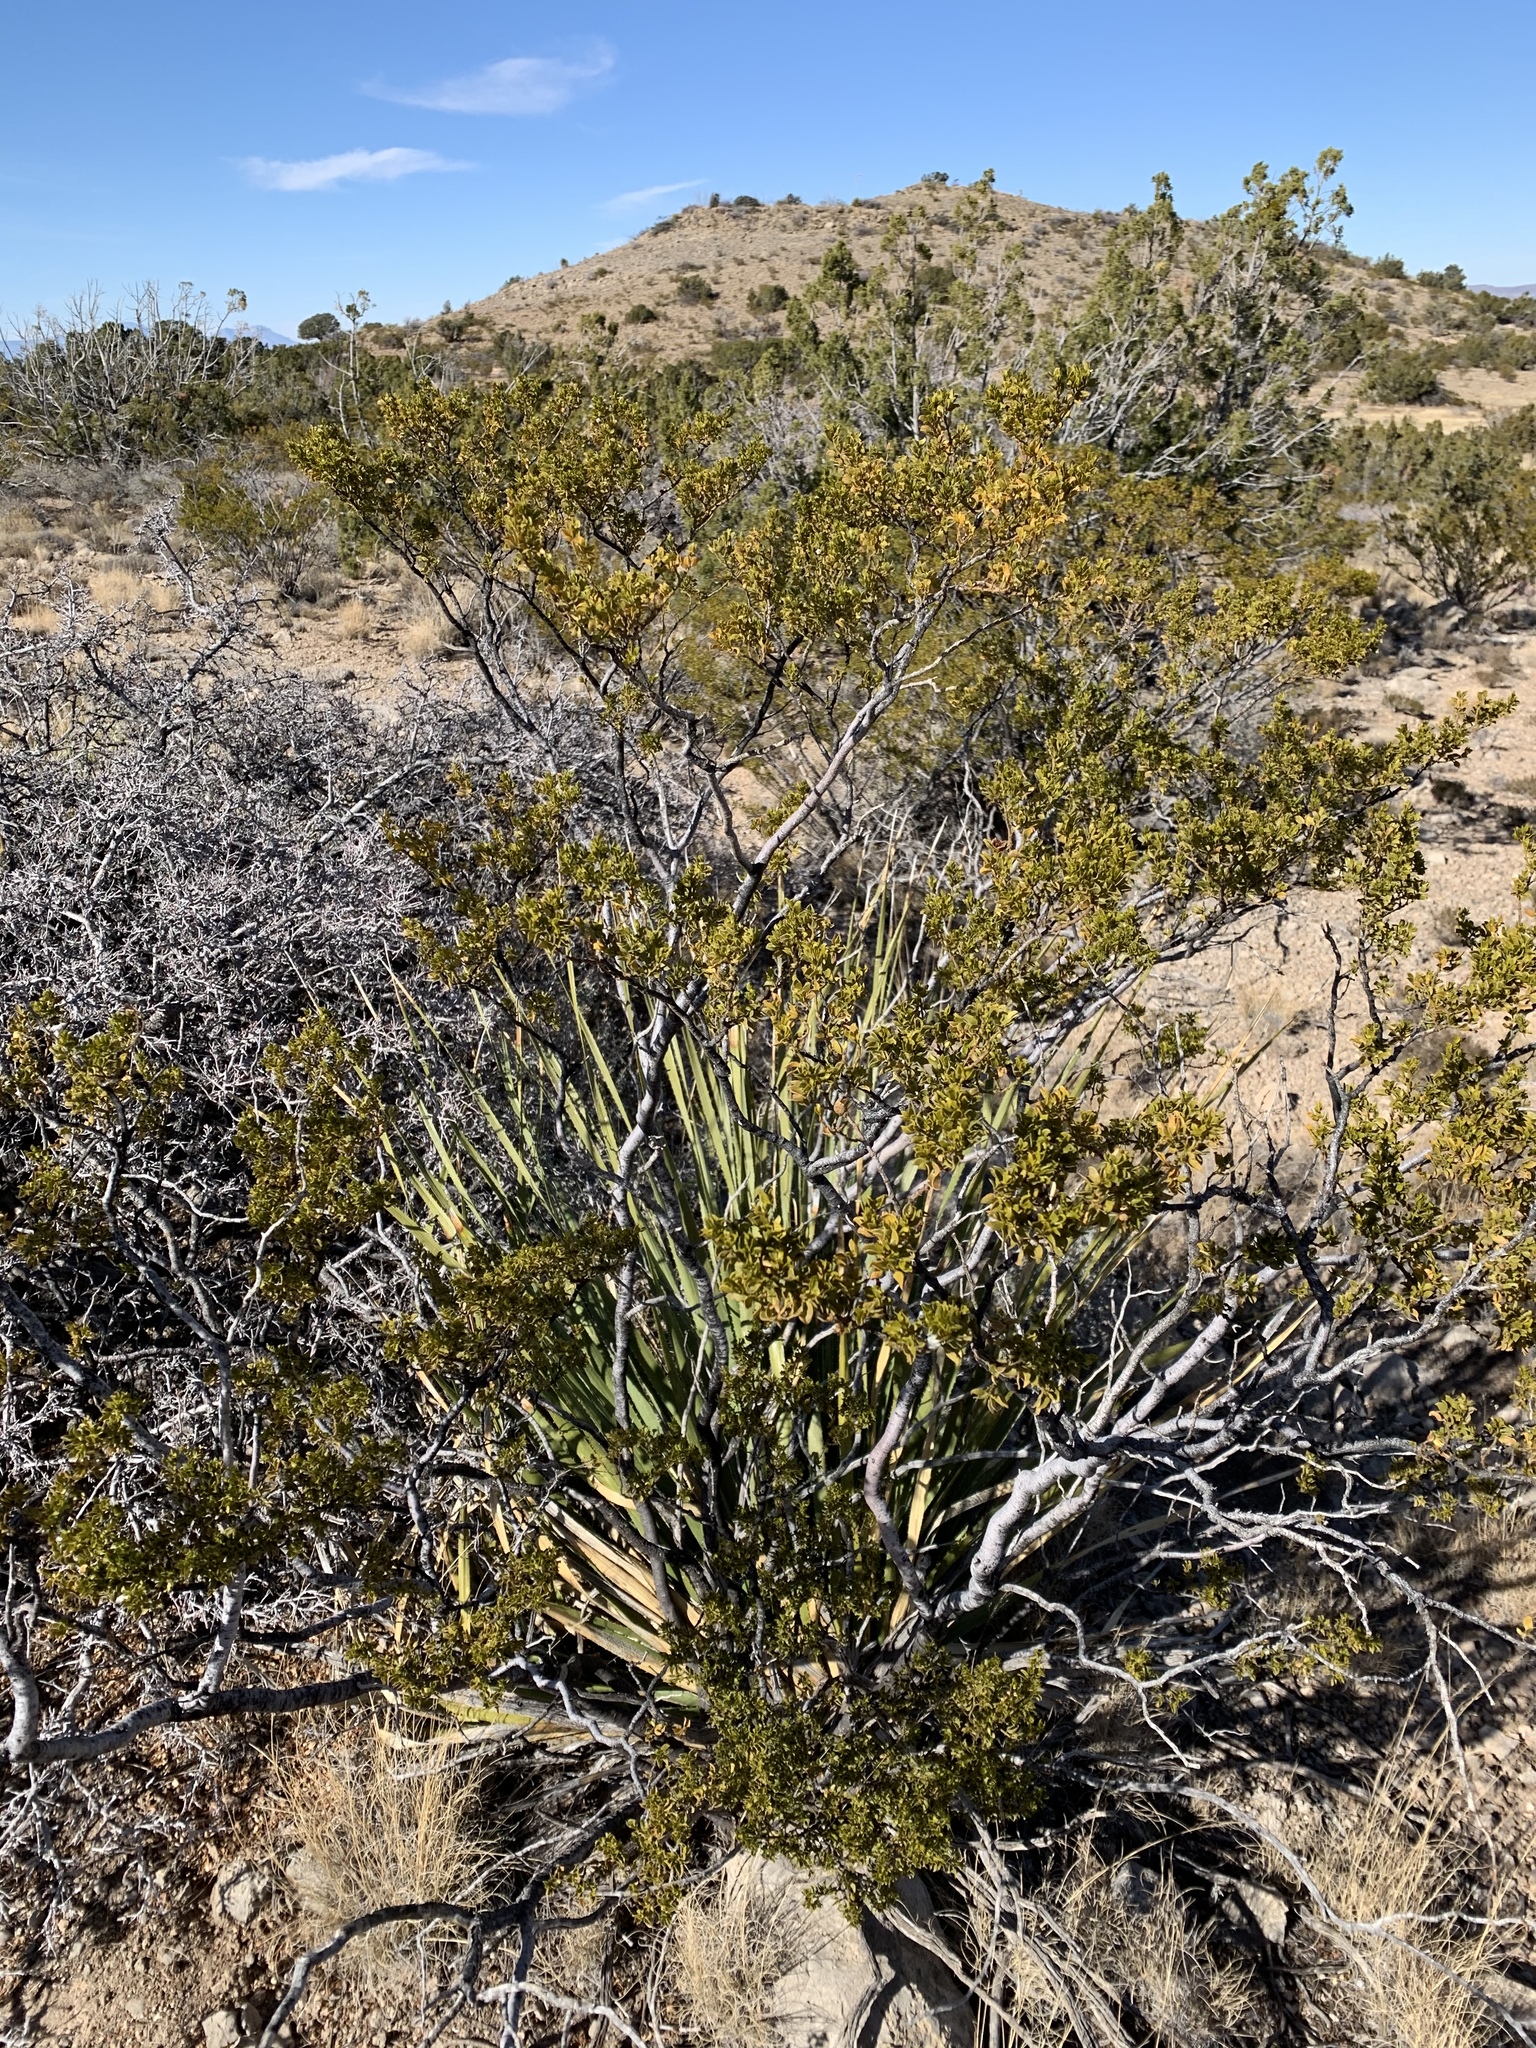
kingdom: Plantae
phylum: Tracheophyta
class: Magnoliopsida
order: Zygophyllales
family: Zygophyllaceae
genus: Larrea
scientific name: Larrea tridentata
